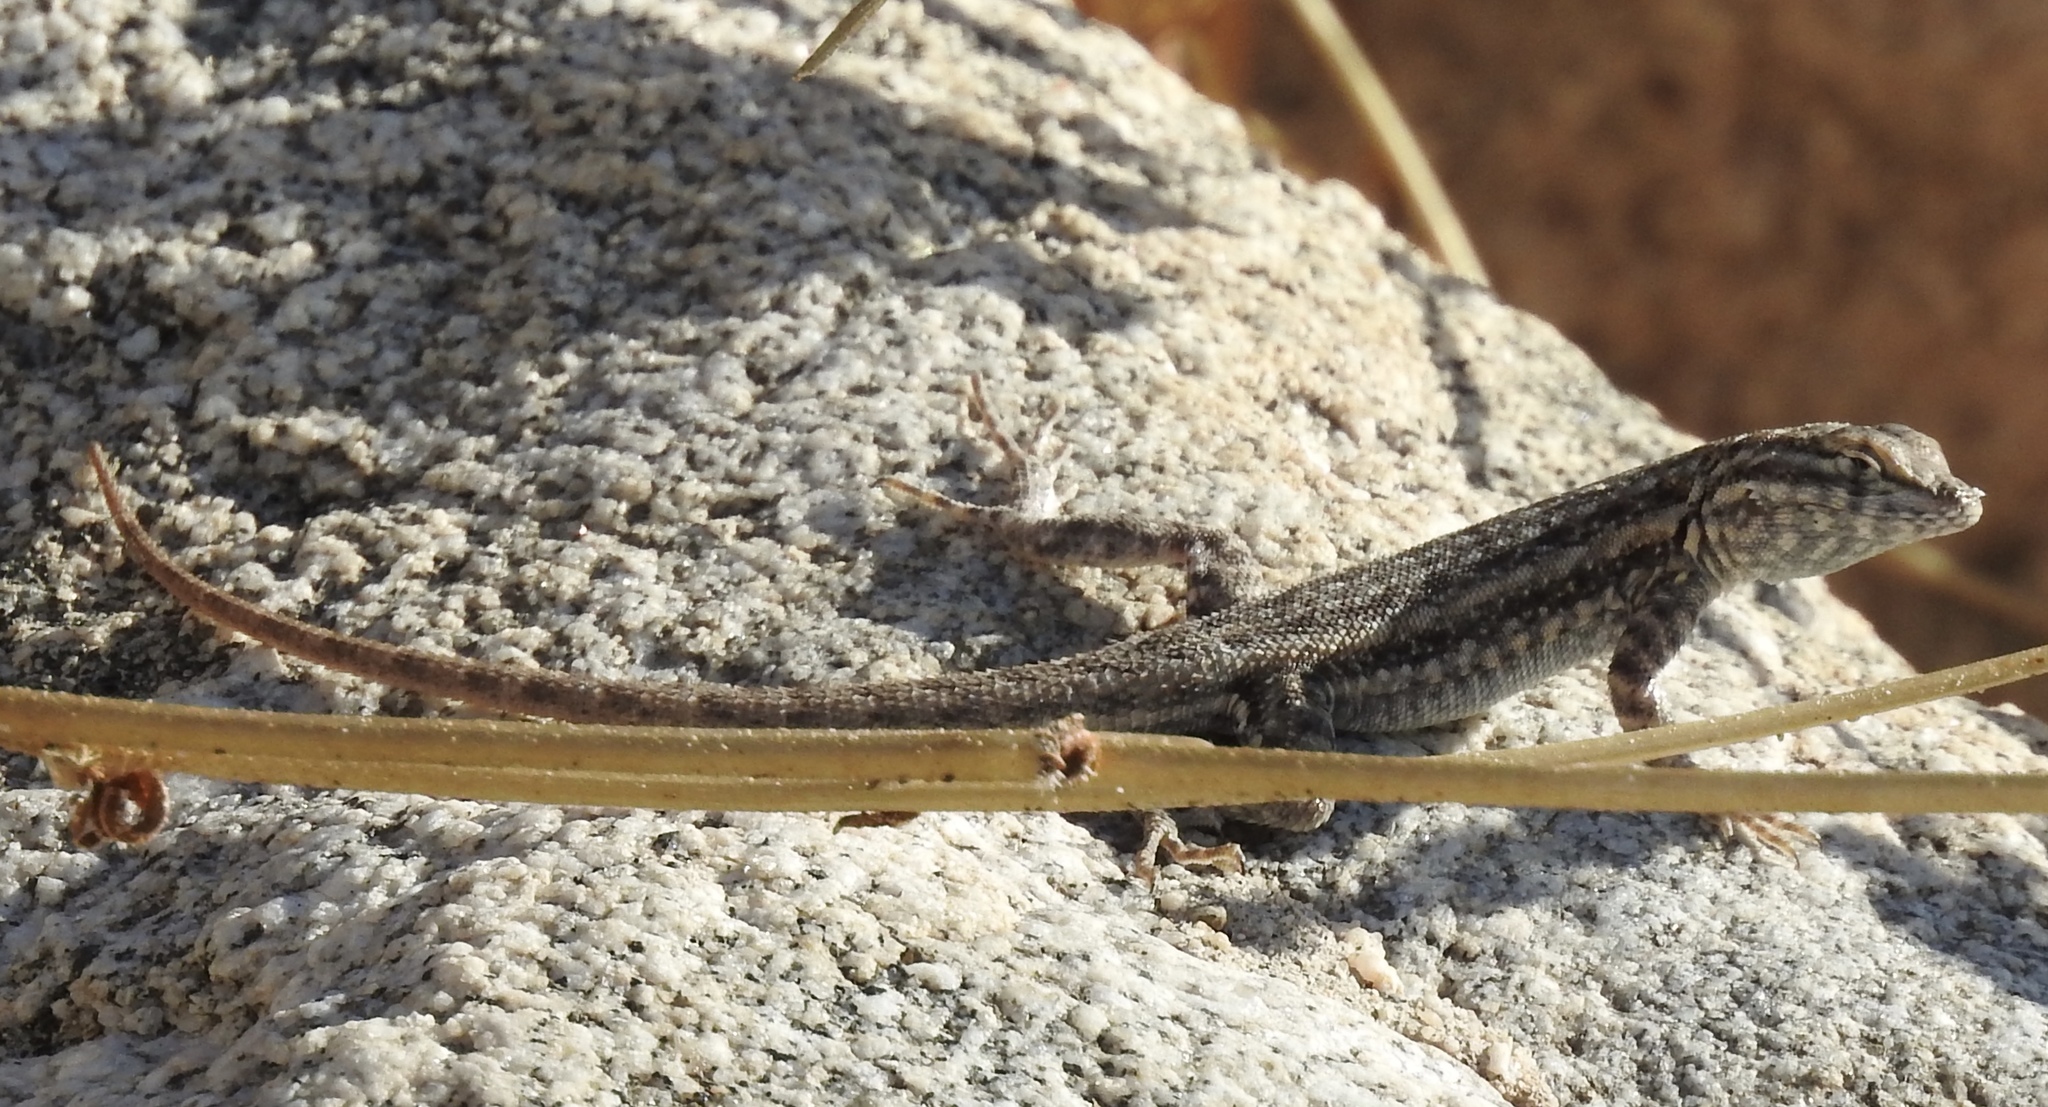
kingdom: Animalia
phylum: Chordata
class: Squamata
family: Phrynosomatidae
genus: Uta
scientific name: Uta stansburiana
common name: Side-blotched lizard
